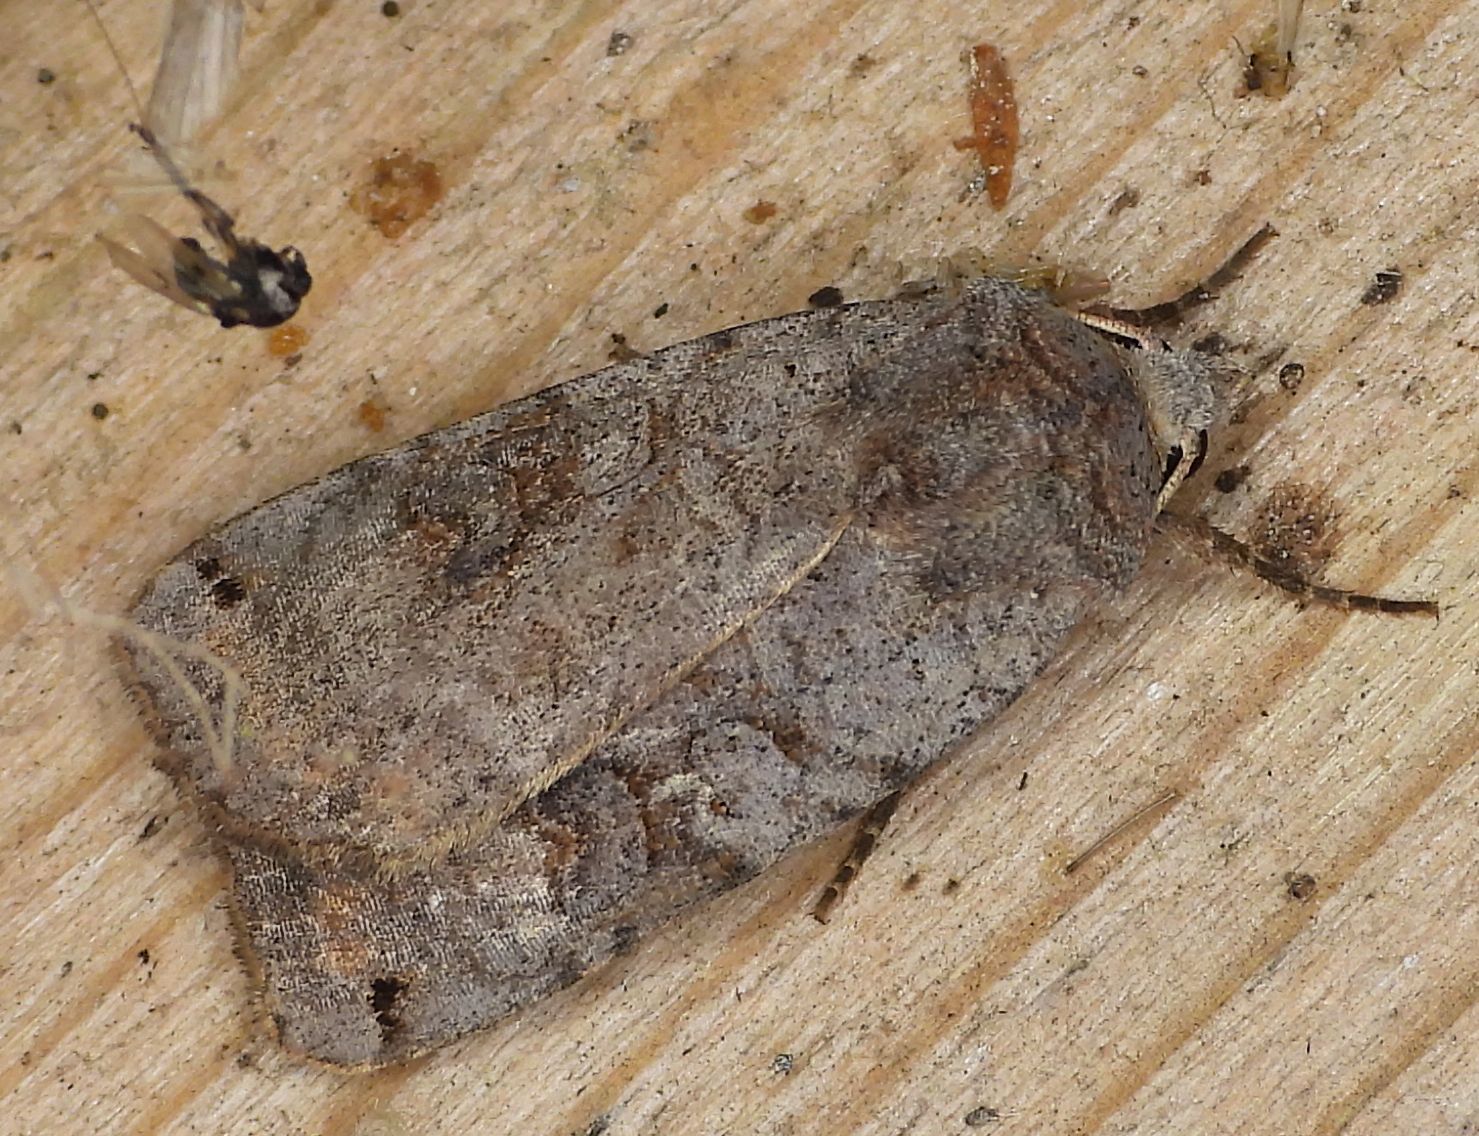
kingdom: Animalia
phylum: Arthropoda
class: Insecta
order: Lepidoptera
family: Noctuidae
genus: Xestia
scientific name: Xestia smithii
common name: Smith's dart
